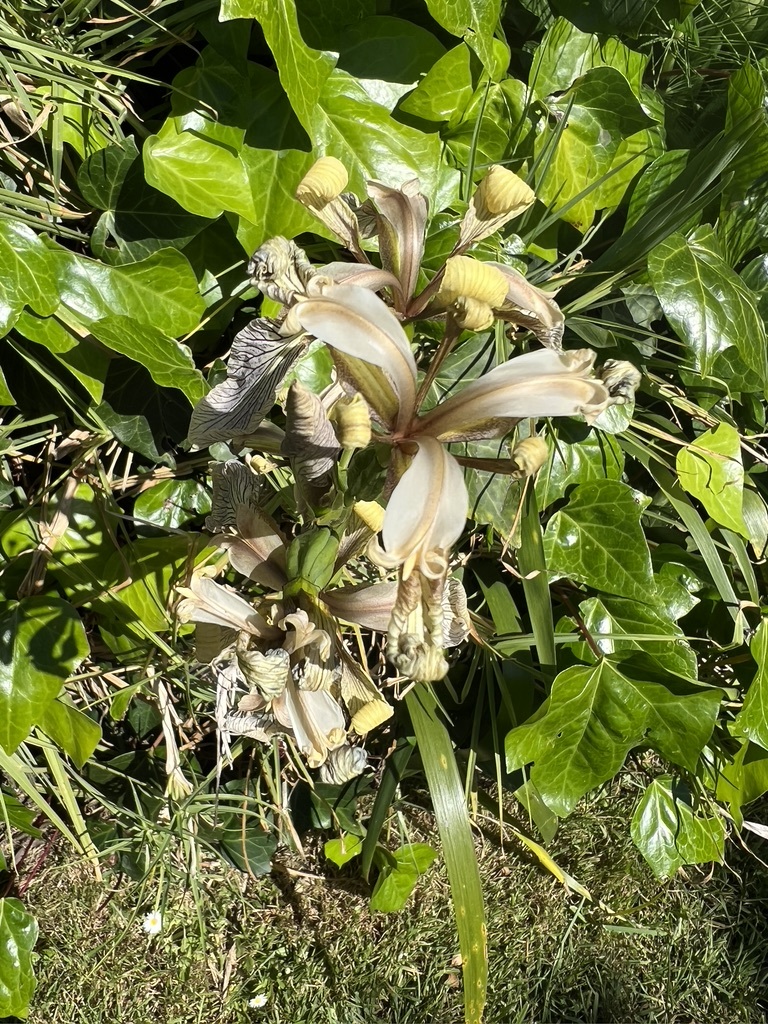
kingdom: Plantae
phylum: Tracheophyta
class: Liliopsida
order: Asparagales
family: Iridaceae
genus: Iris
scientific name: Iris foetidissima
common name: Stinking iris
